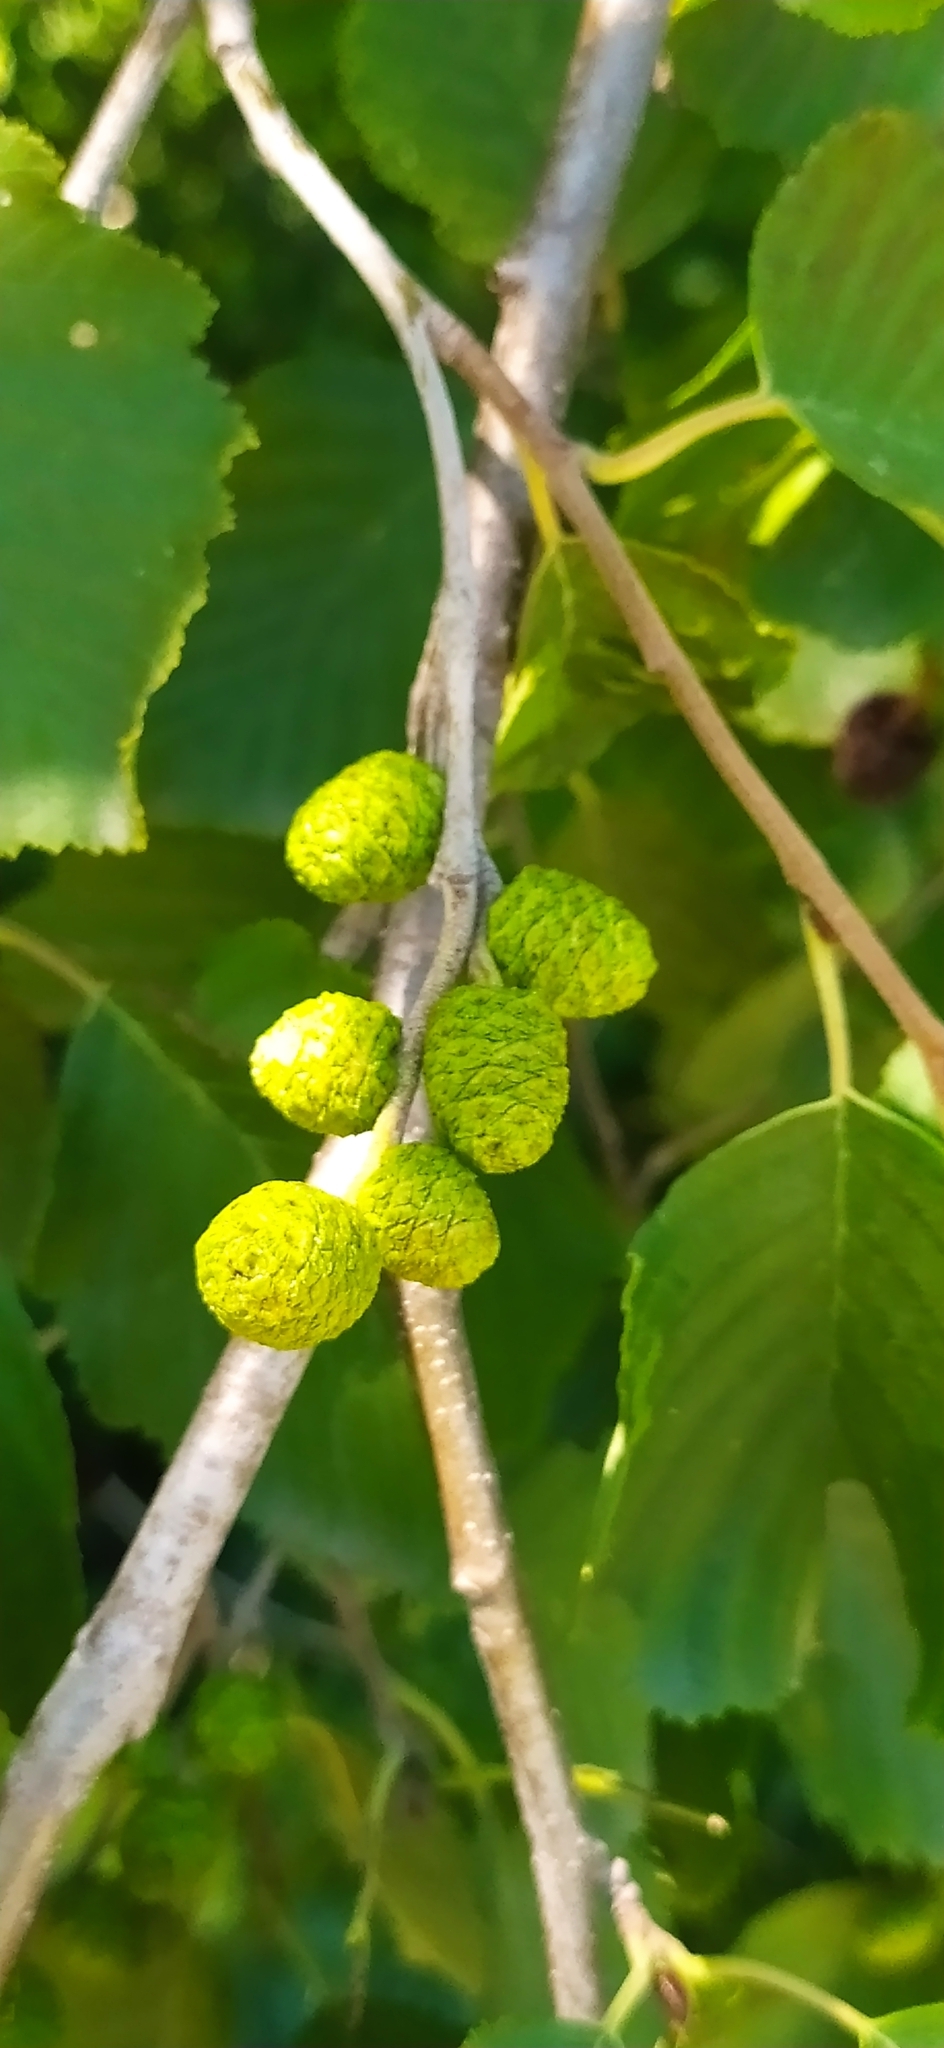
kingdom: Plantae
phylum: Tracheophyta
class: Magnoliopsida
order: Fagales
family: Betulaceae
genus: Alnus
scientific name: Alnus incana
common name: Grey alder
